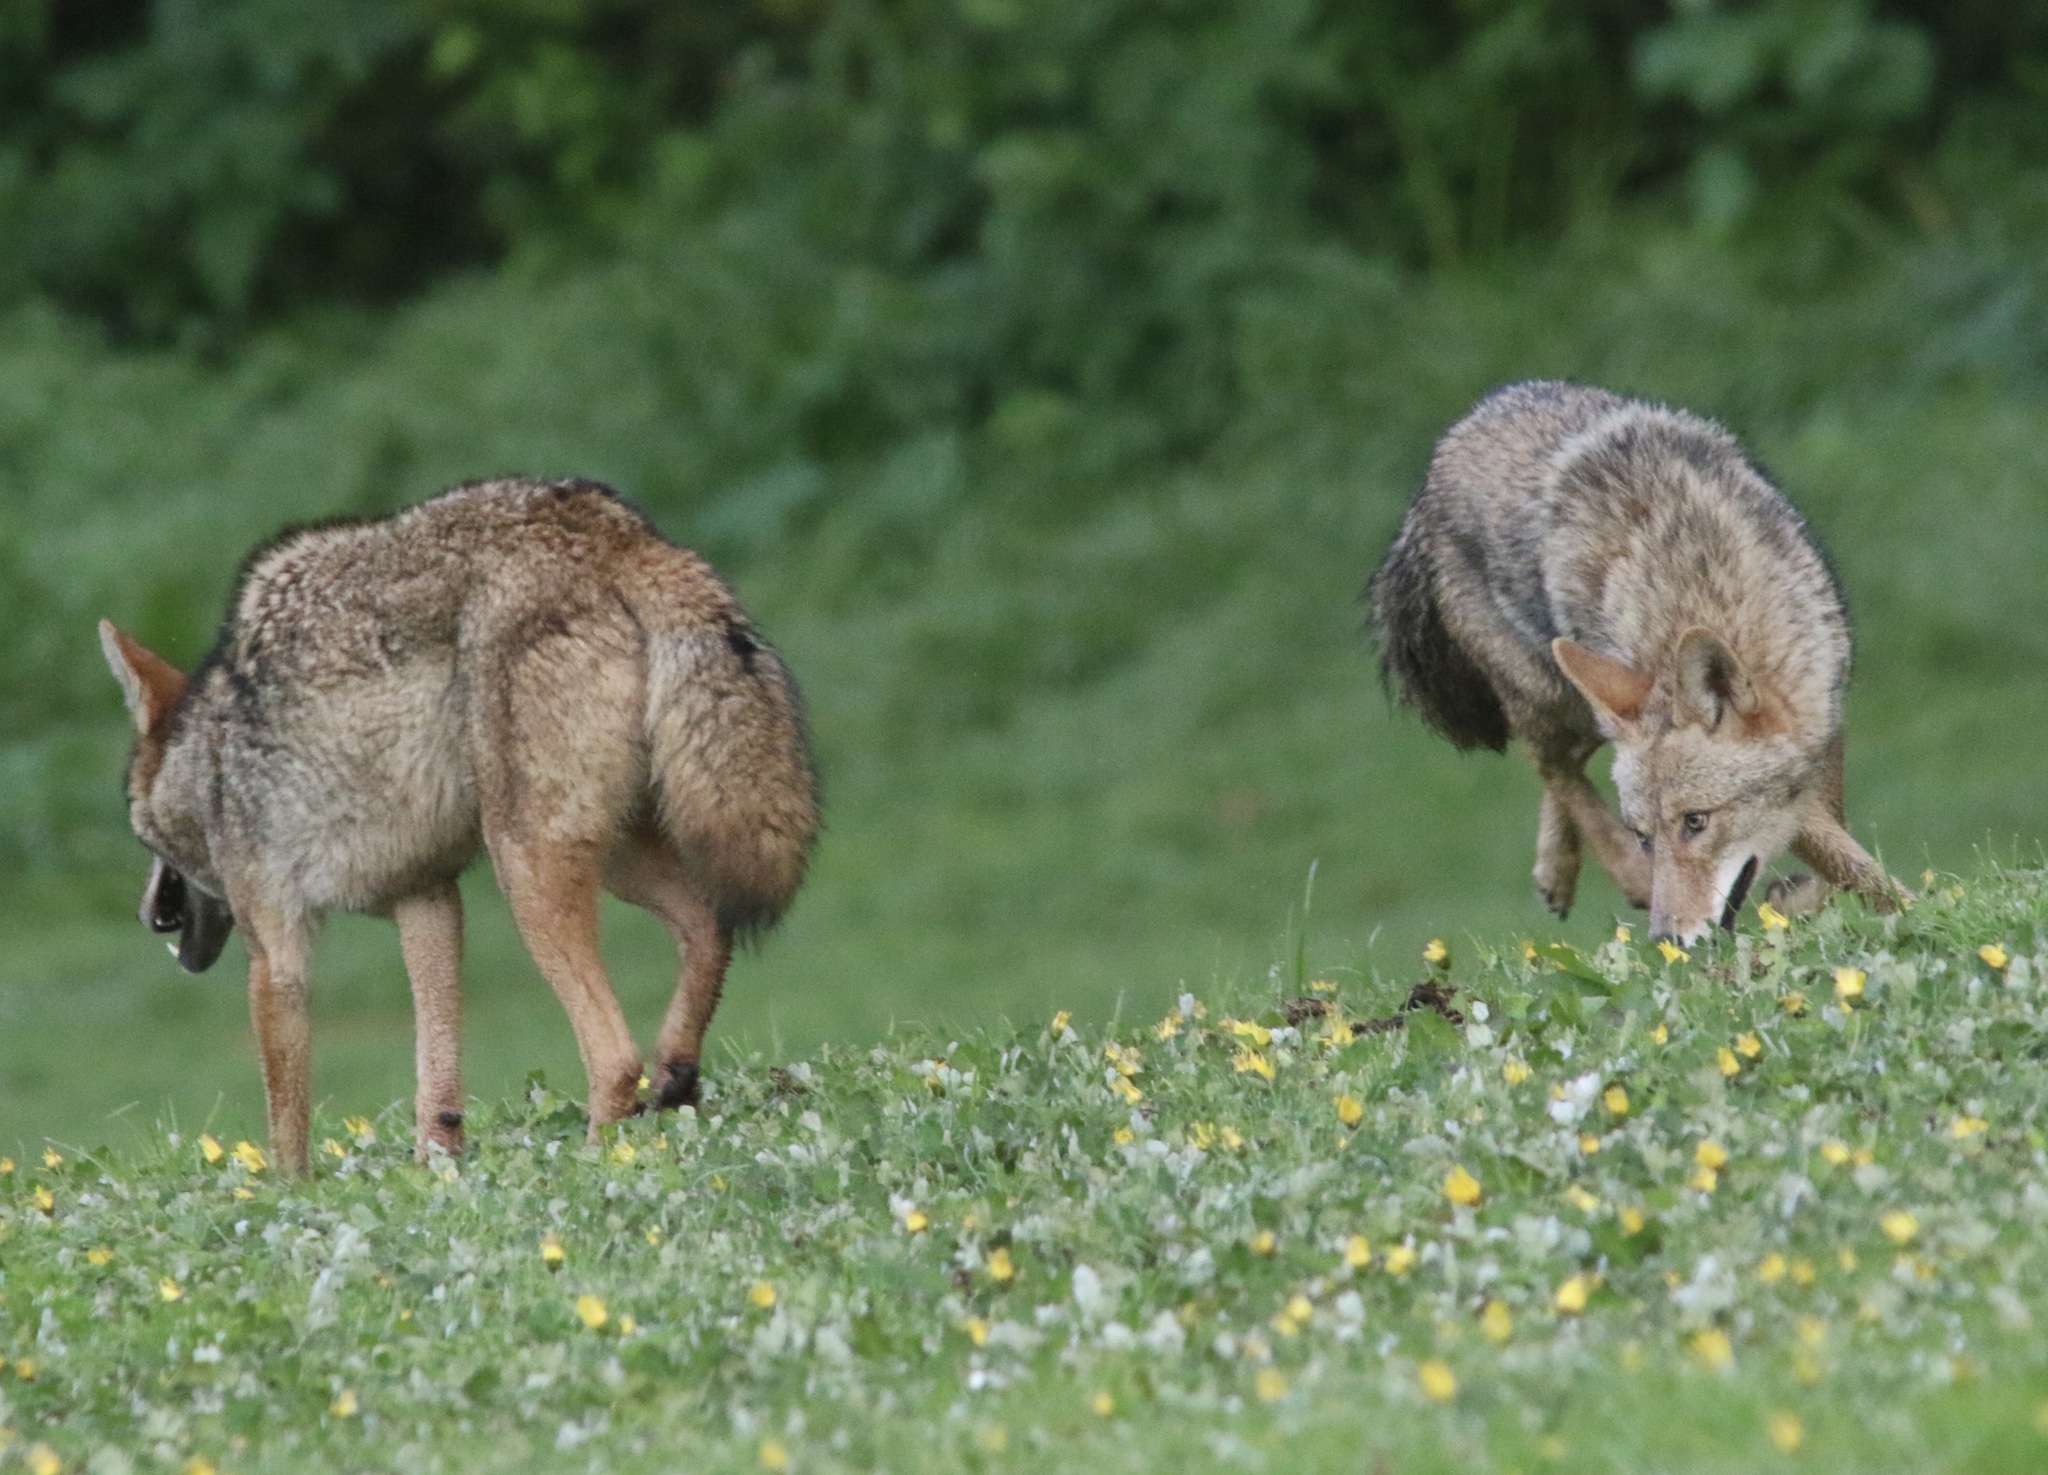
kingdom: Animalia
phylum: Chordata
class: Mammalia
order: Carnivora
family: Canidae
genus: Canis
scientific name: Canis latrans
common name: Coyote
